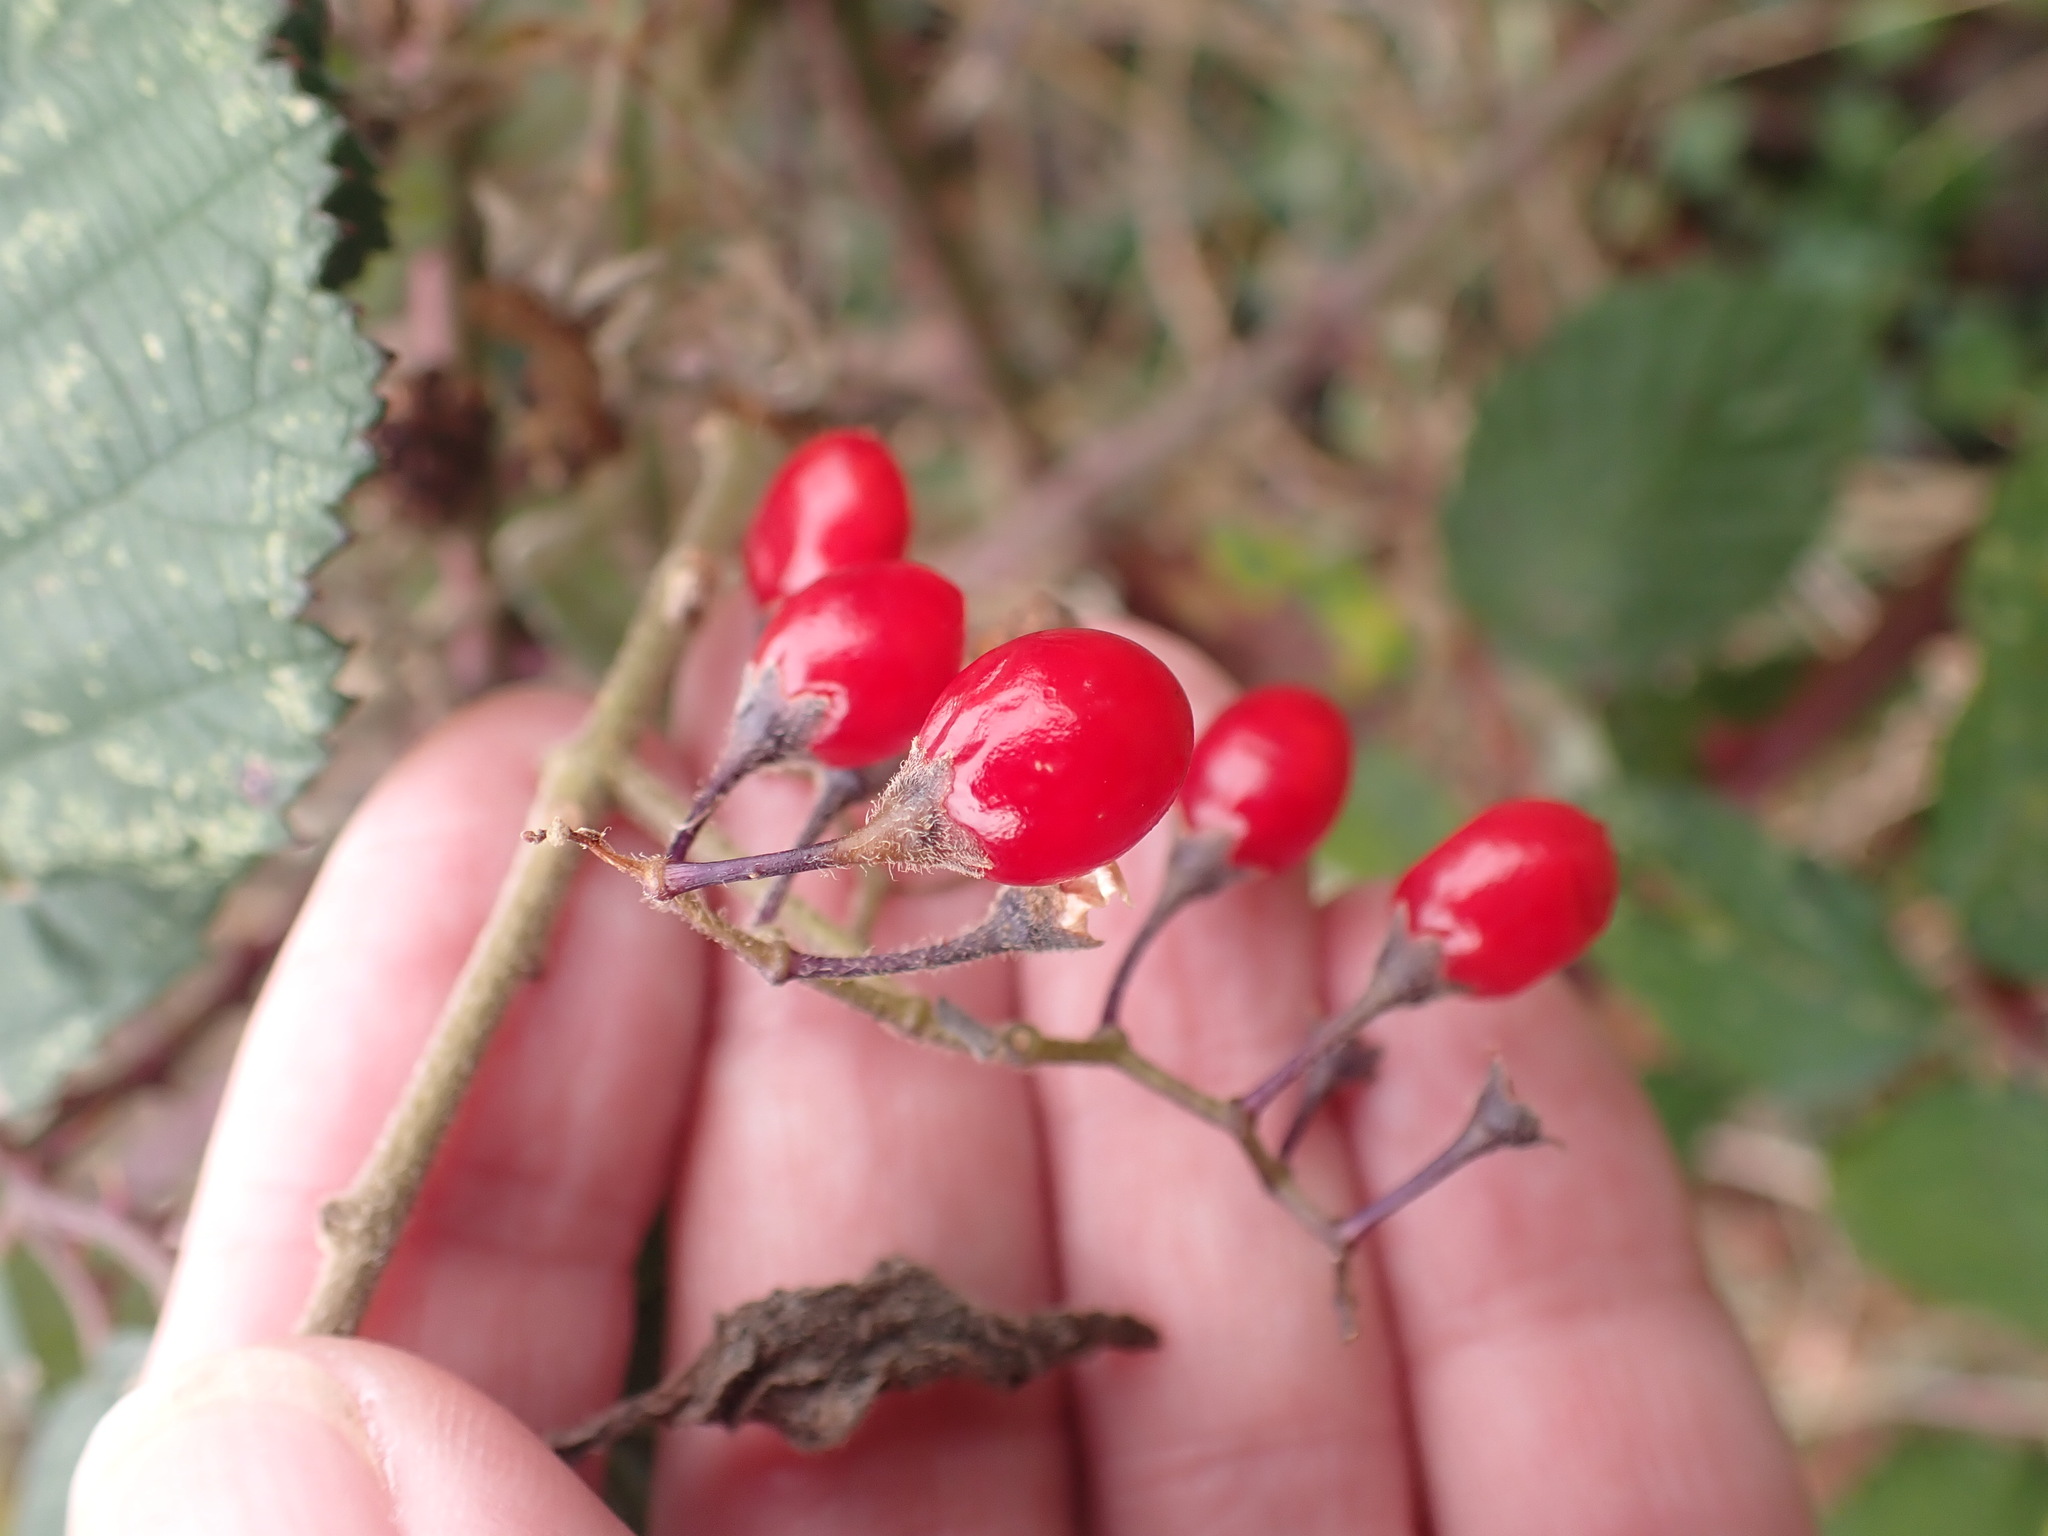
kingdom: Plantae
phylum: Tracheophyta
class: Magnoliopsida
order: Solanales
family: Solanaceae
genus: Solanum
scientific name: Solanum dulcamara
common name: Climbing nightshade
